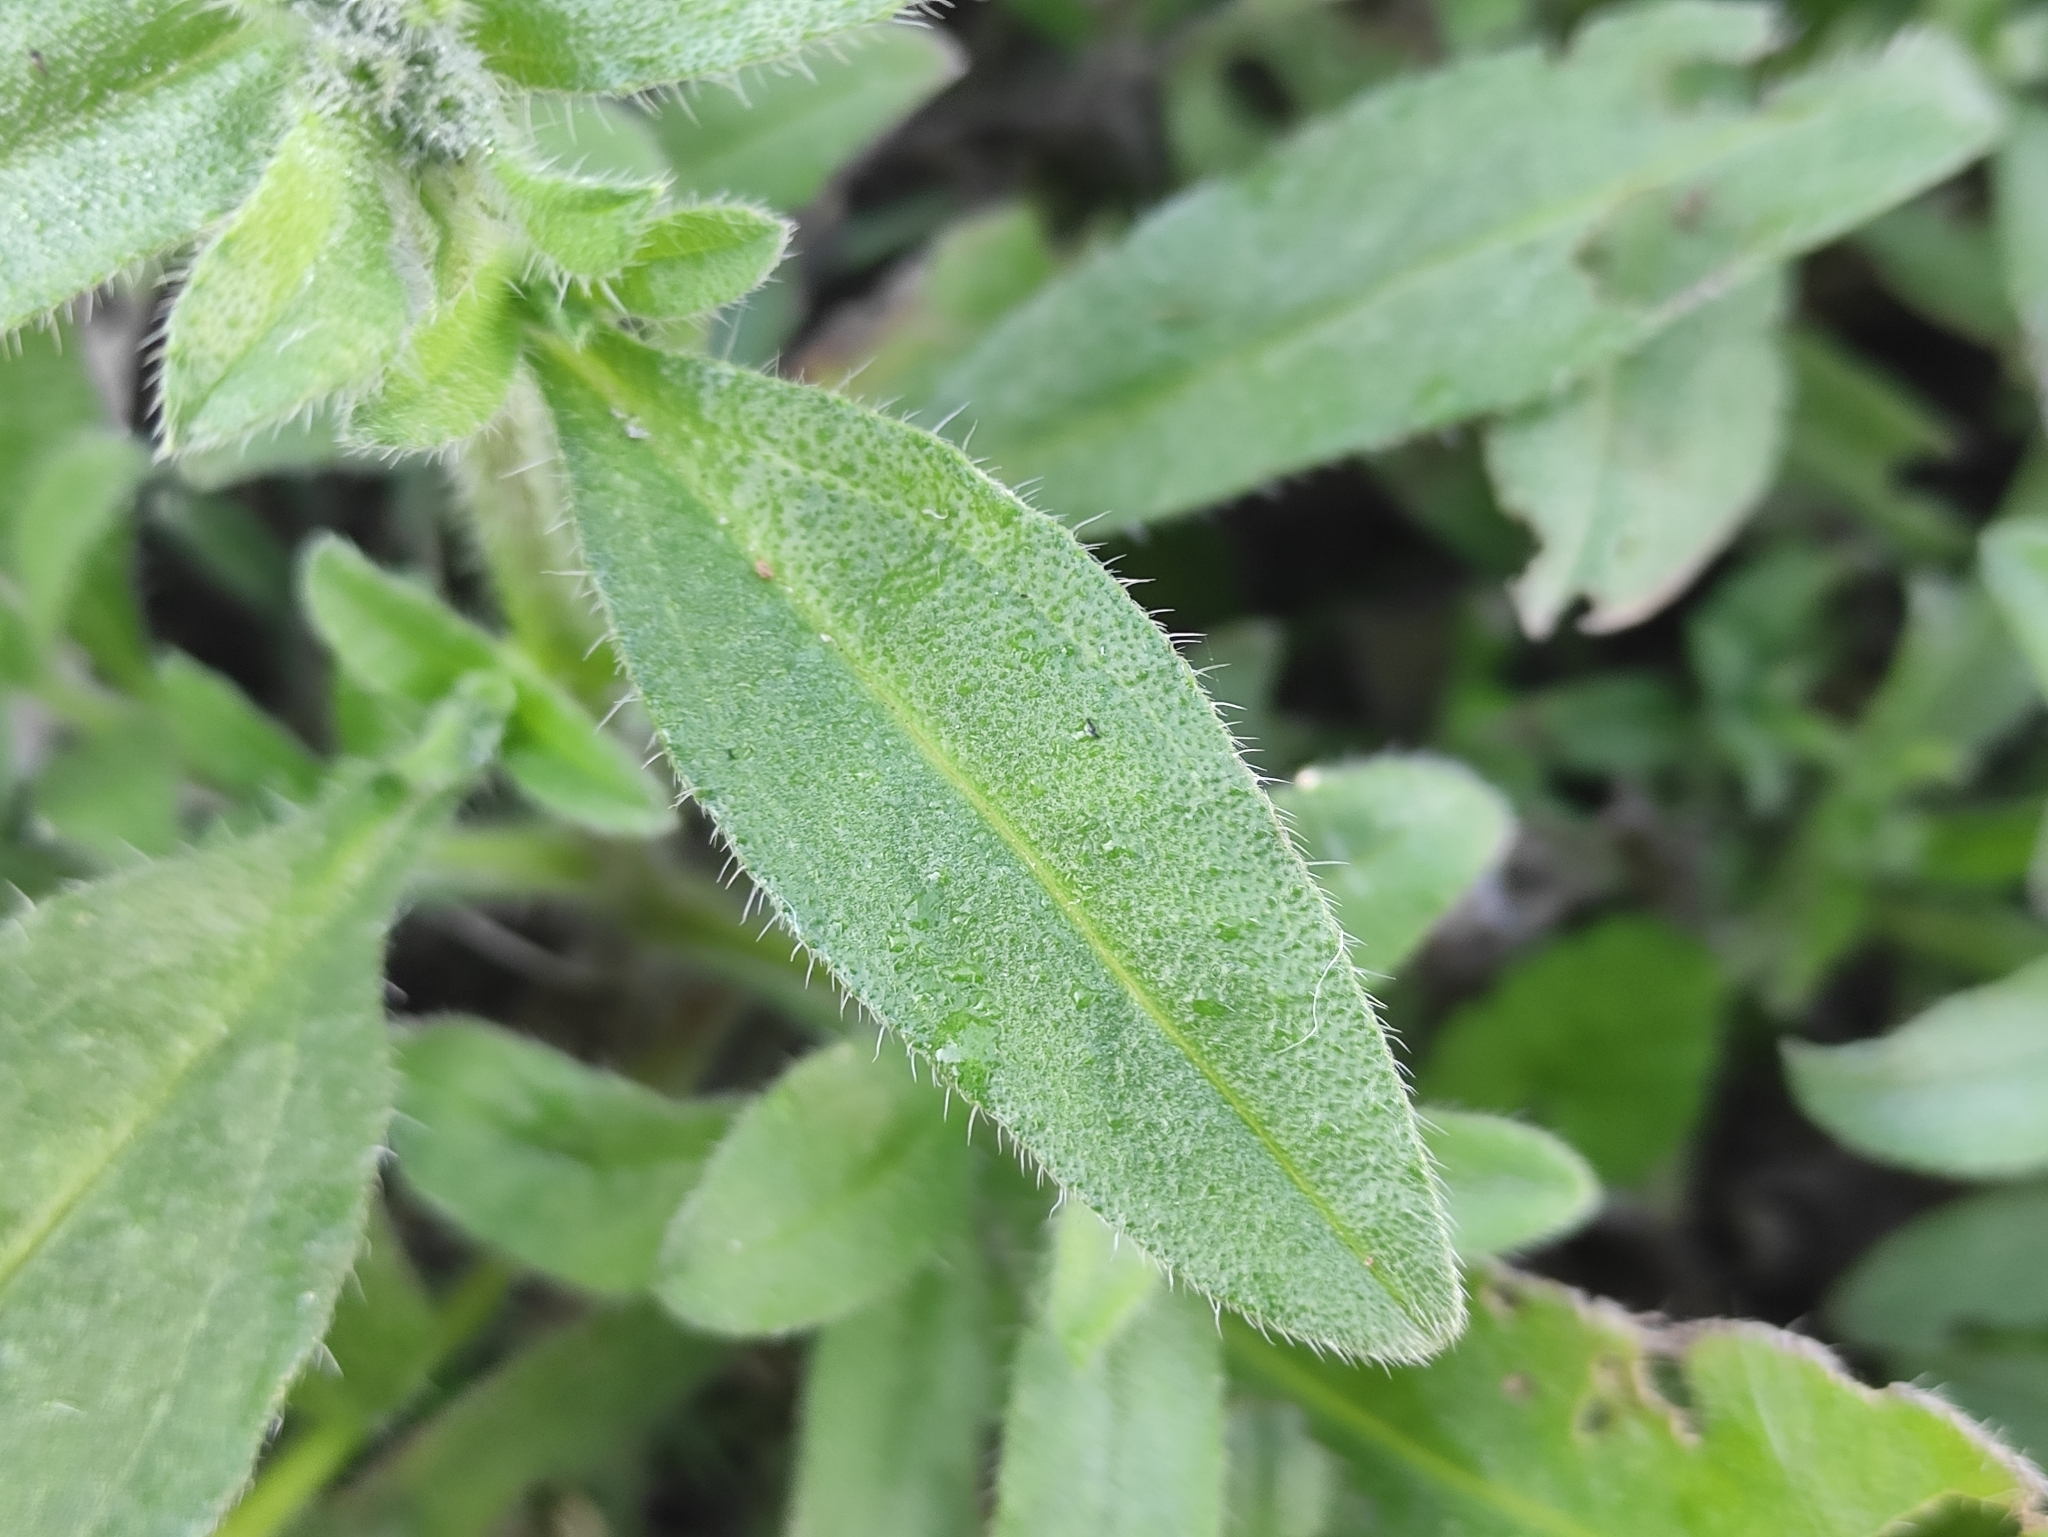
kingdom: Plantae
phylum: Tracheophyta
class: Magnoliopsida
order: Boraginales
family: Boraginaceae
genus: Echium
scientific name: Echium parviflorum
